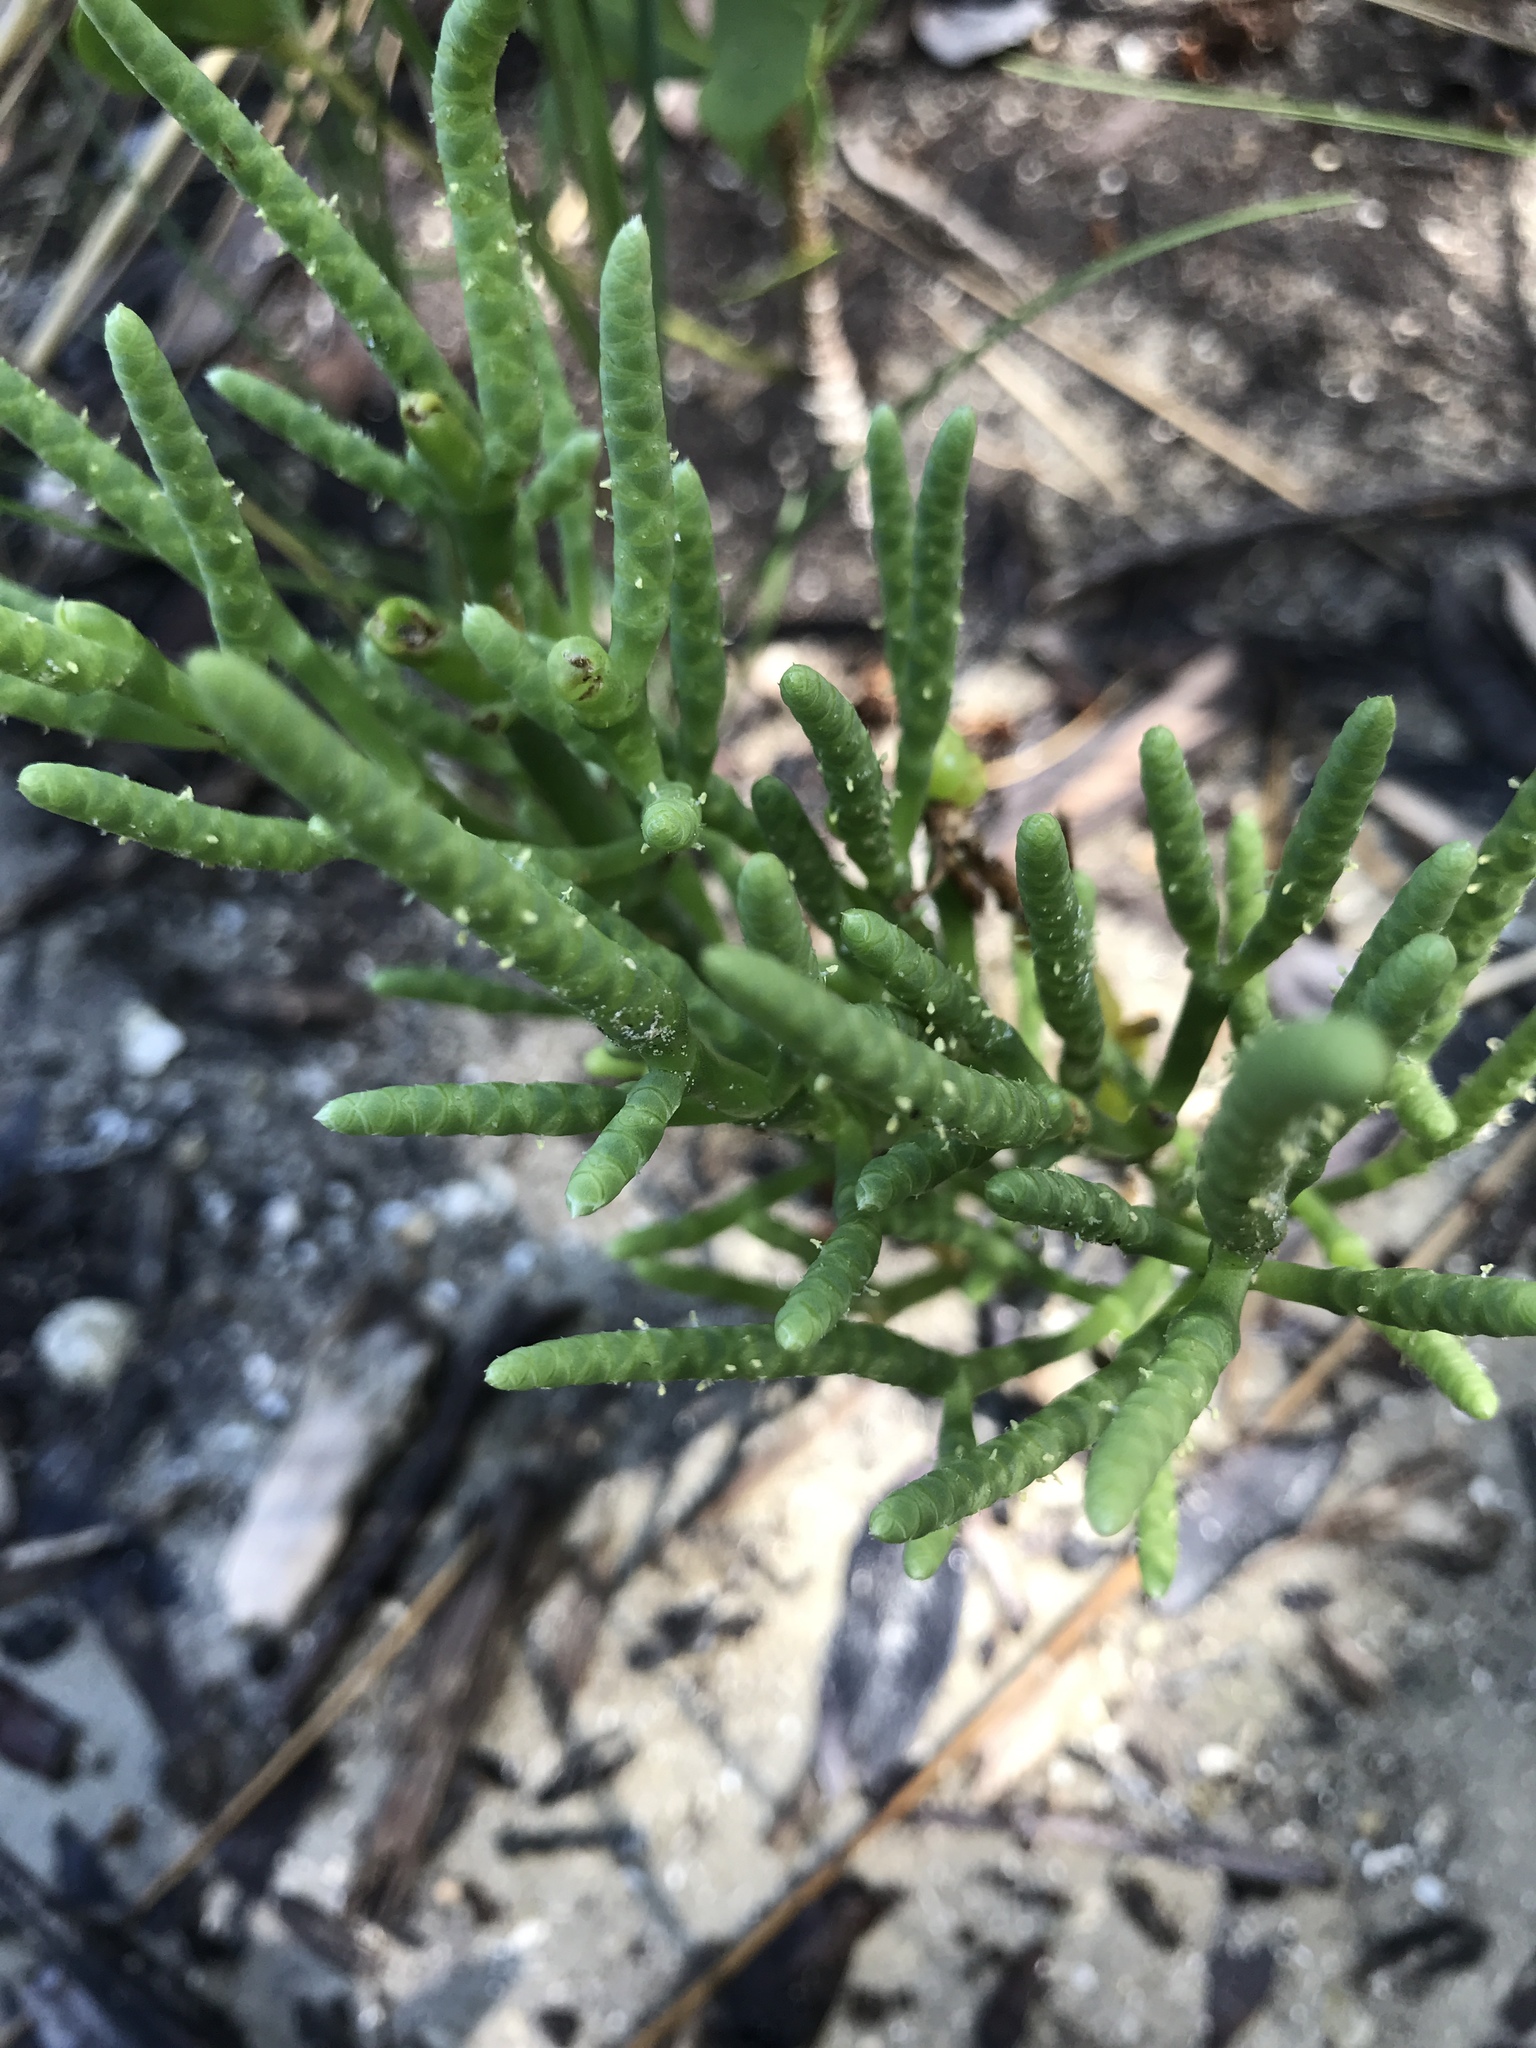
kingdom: Plantae
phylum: Tracheophyta
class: Magnoliopsida
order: Caryophyllales
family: Amaranthaceae
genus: Salicornia
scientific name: Salicornia bigelovii
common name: Dwarf glasswort
